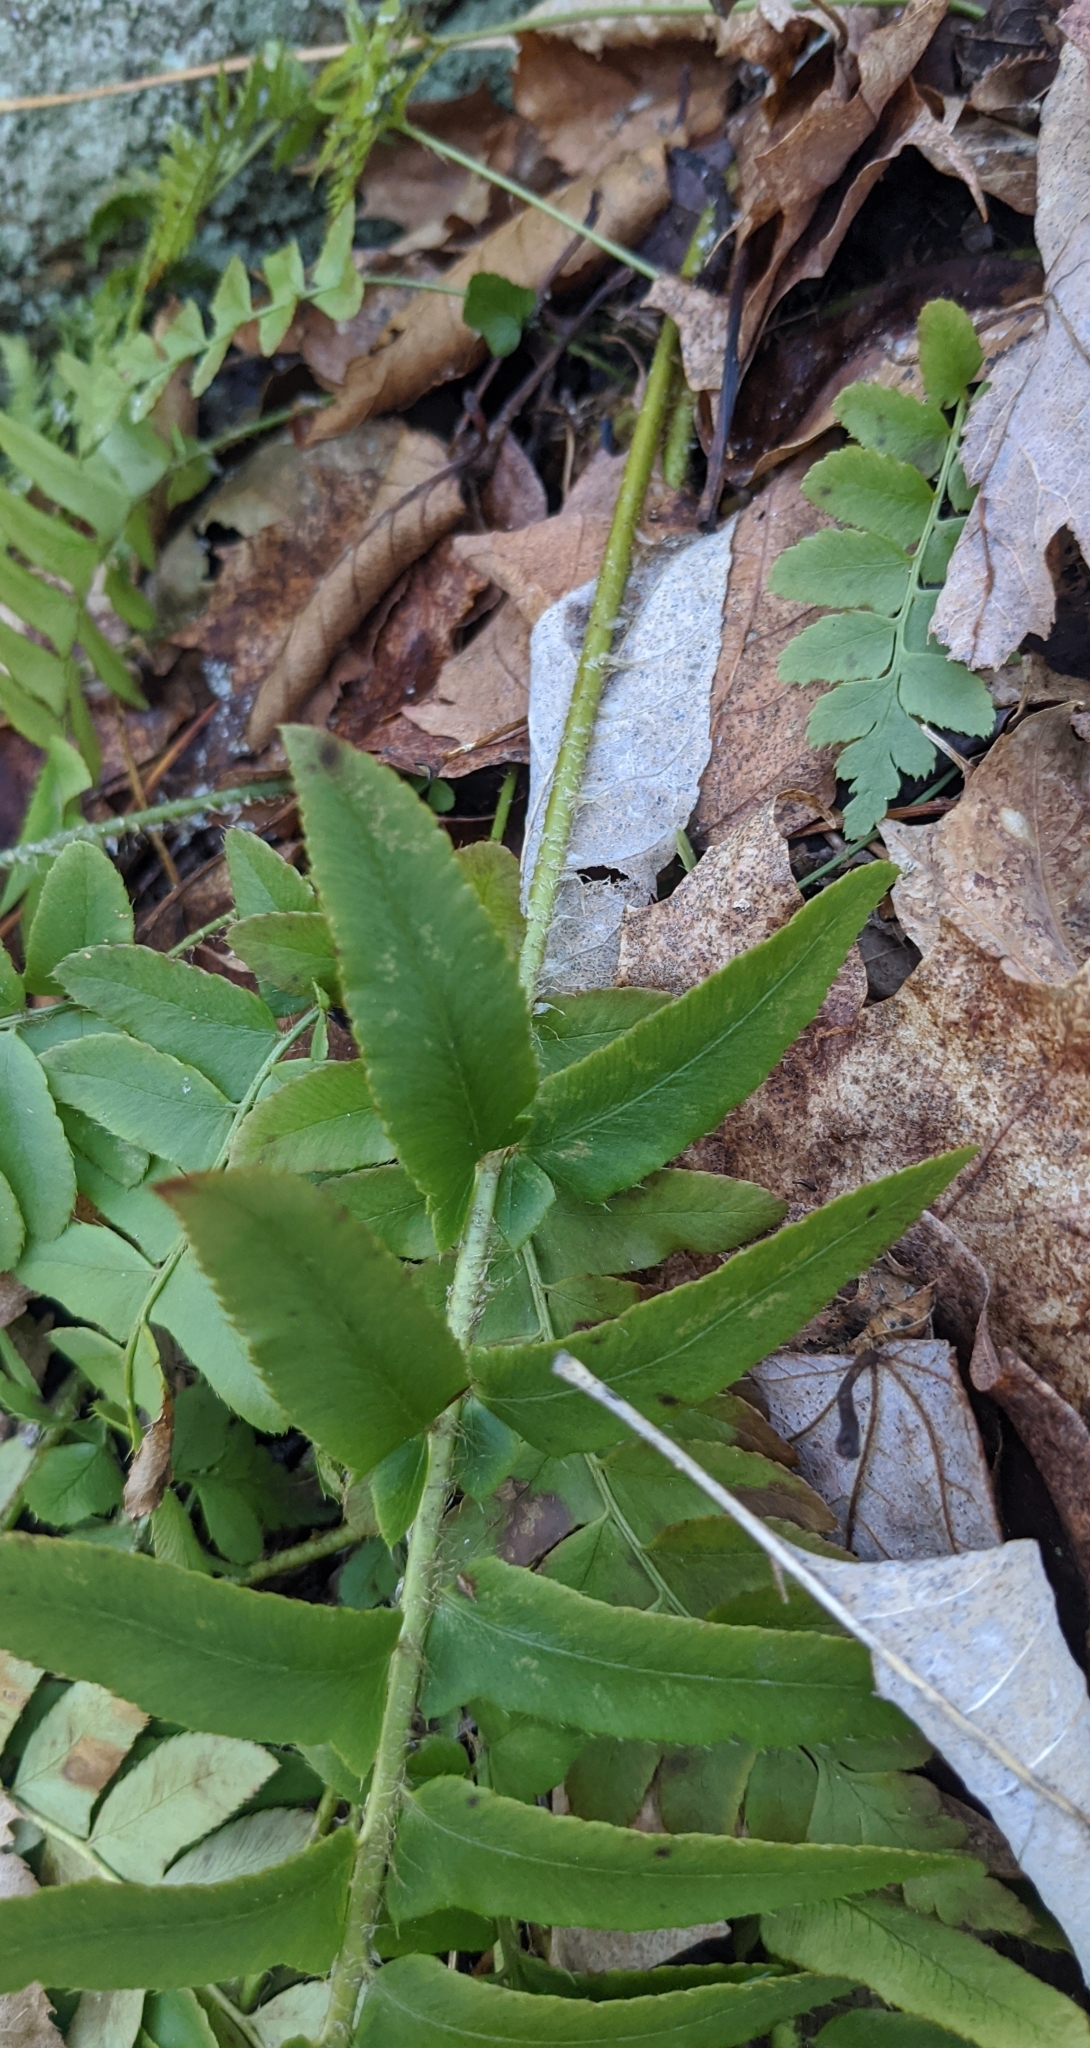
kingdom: Plantae
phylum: Tracheophyta
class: Polypodiopsida
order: Polypodiales
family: Dryopteridaceae
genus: Polystichum
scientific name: Polystichum acrostichoides
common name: Christmas fern
